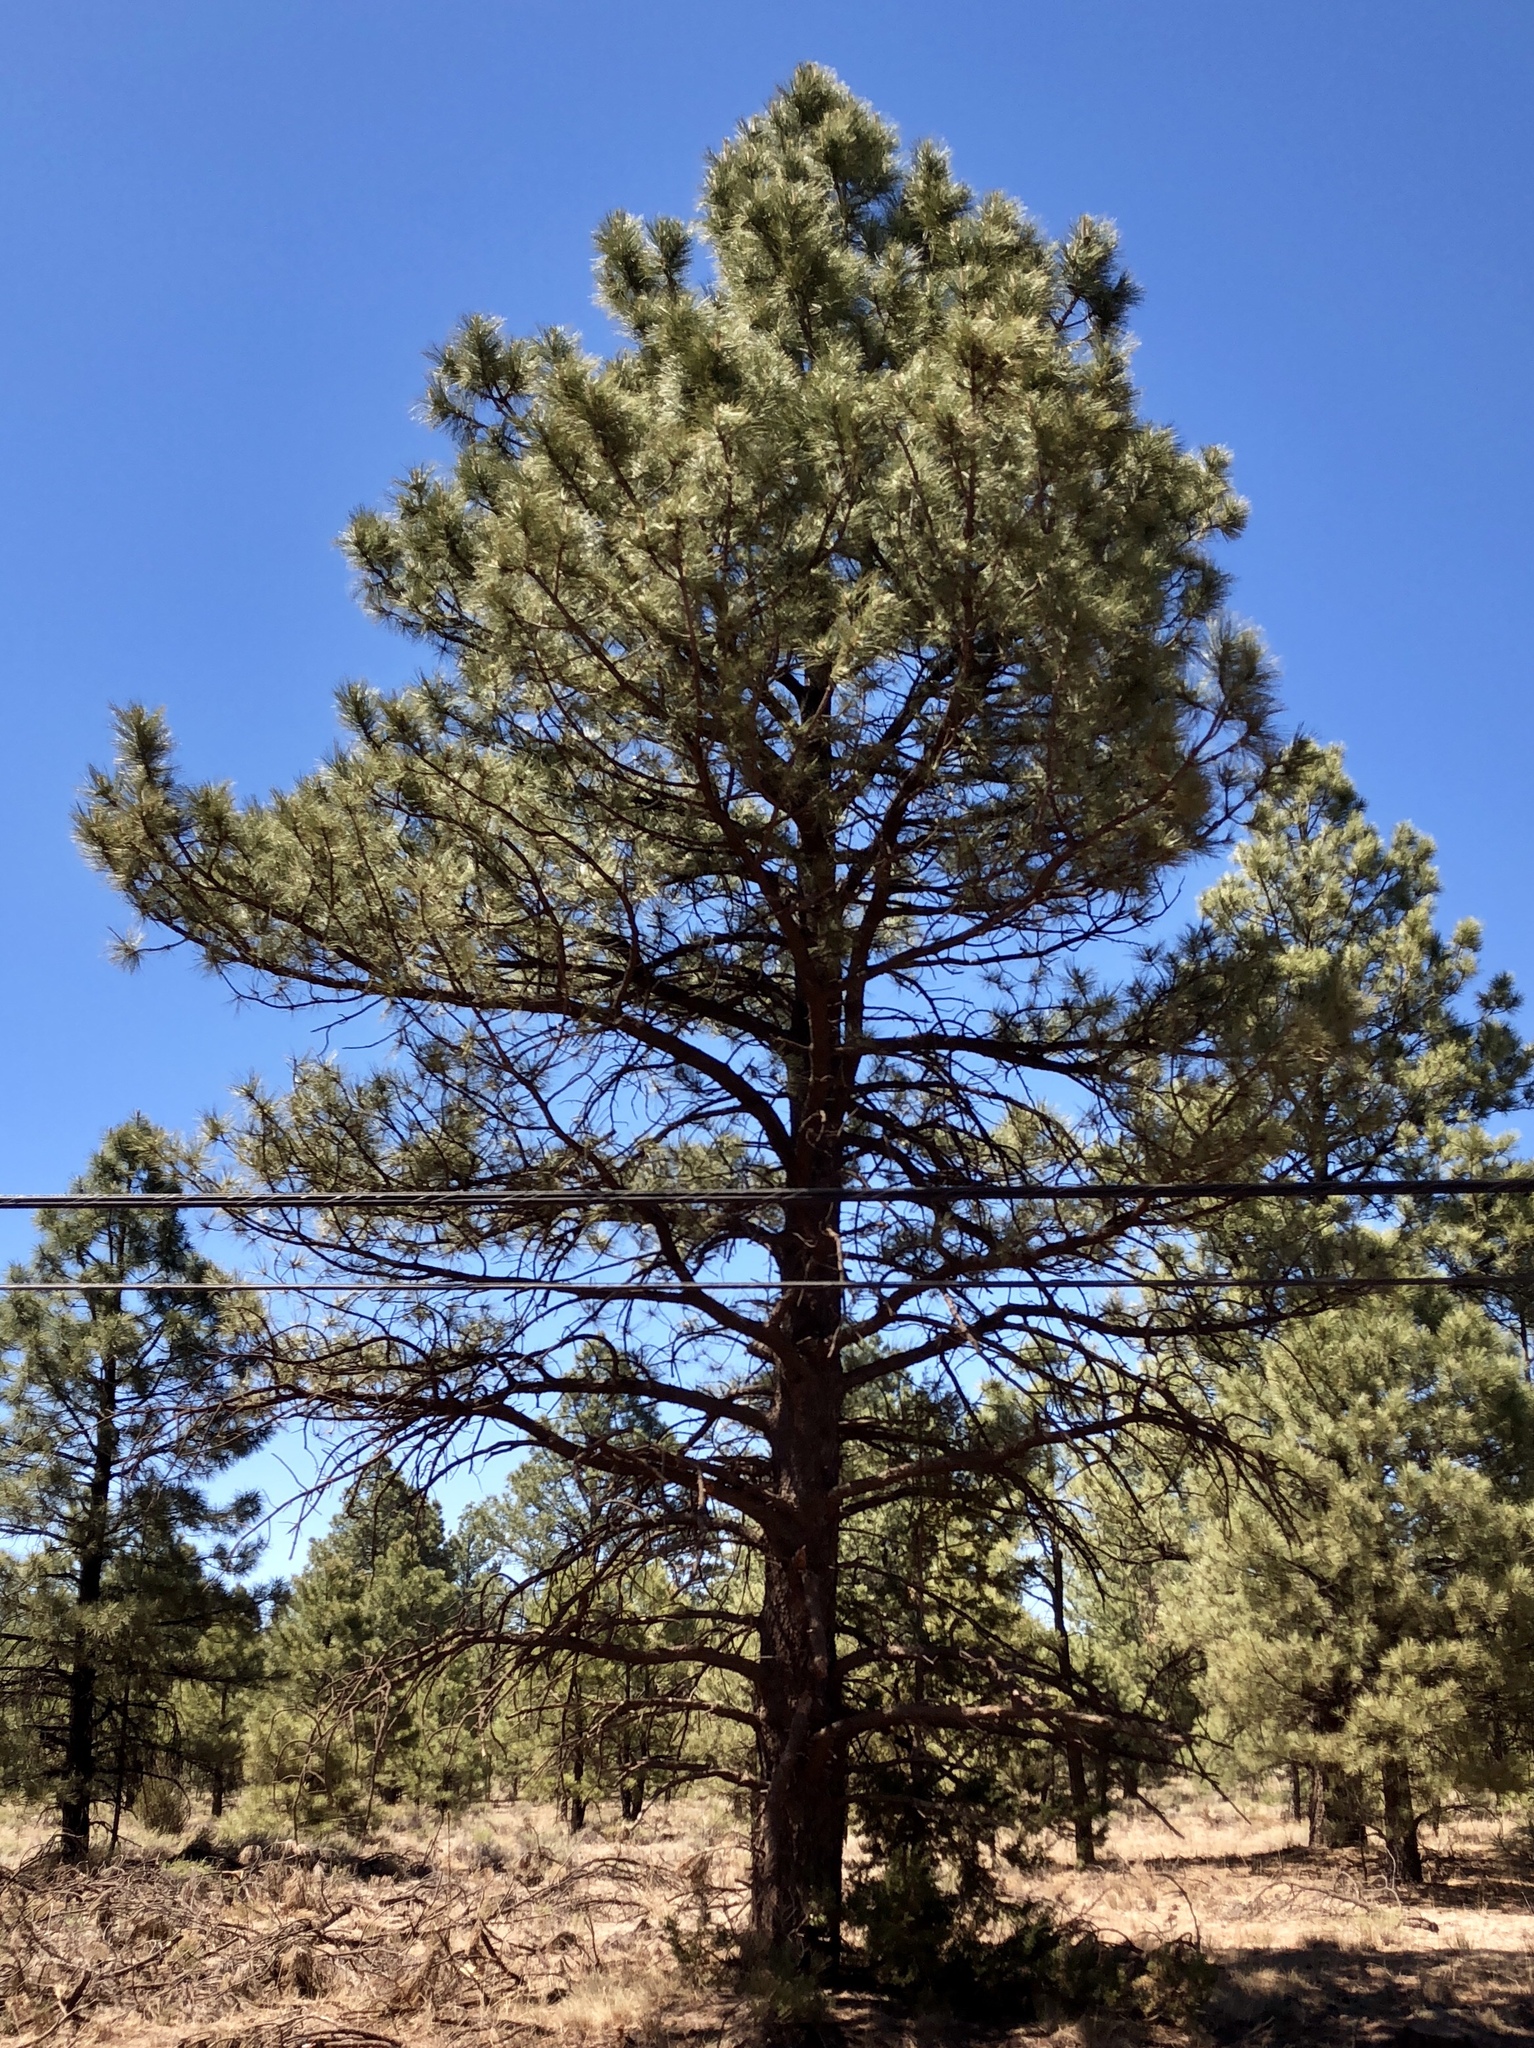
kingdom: Plantae
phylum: Tracheophyta
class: Pinopsida
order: Pinales
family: Pinaceae
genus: Pinus
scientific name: Pinus ponderosa
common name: Western yellow-pine
